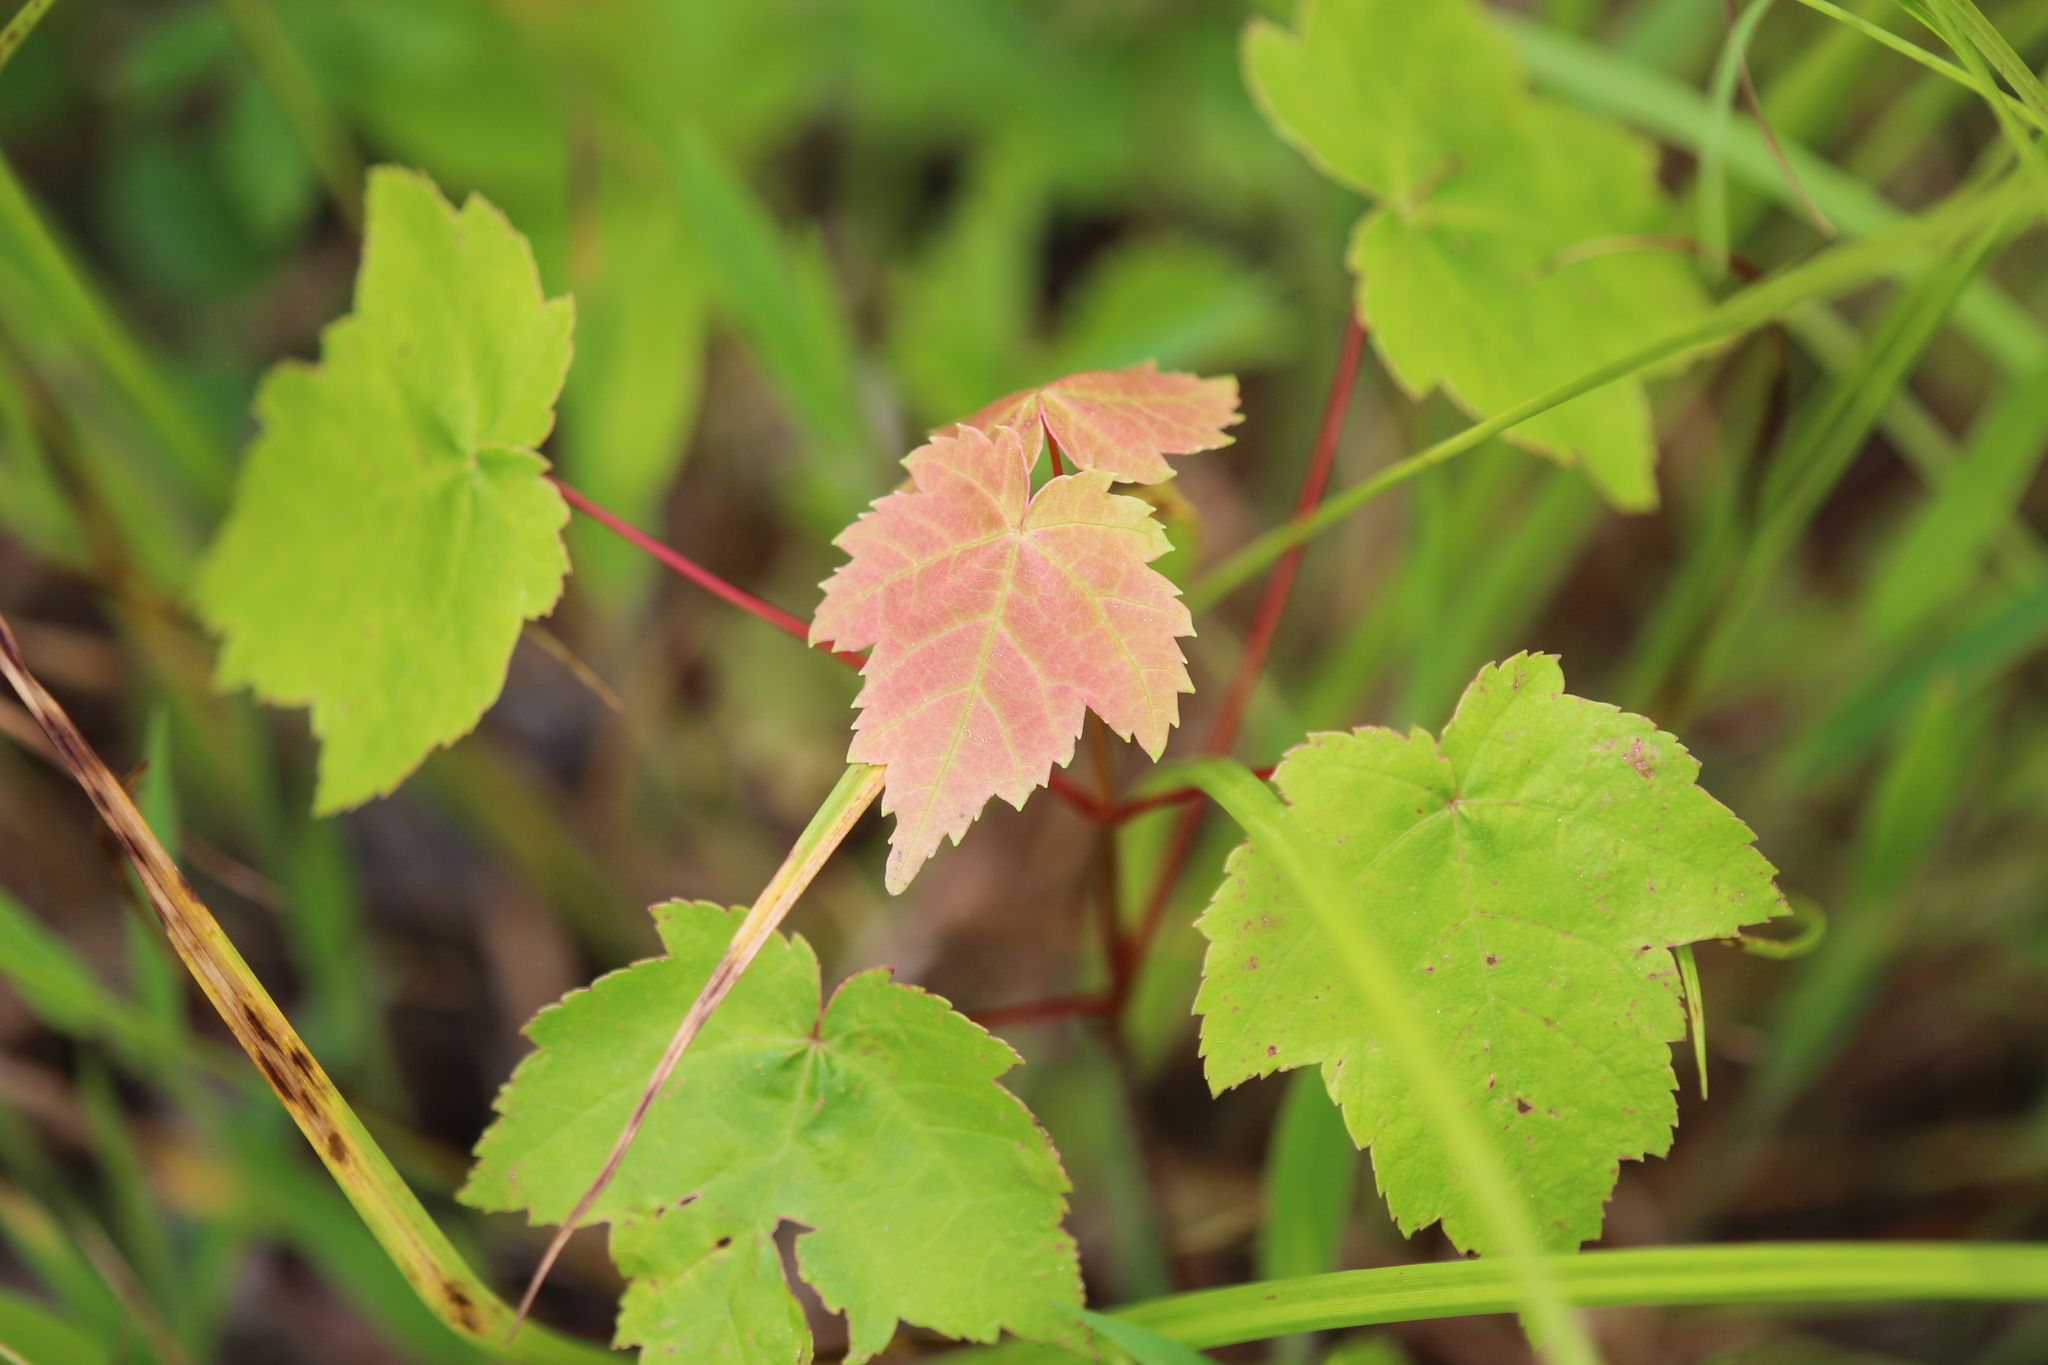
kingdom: Plantae
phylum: Tracheophyta
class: Magnoliopsida
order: Sapindales
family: Sapindaceae
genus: Acer
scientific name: Acer rubrum
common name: Red maple
